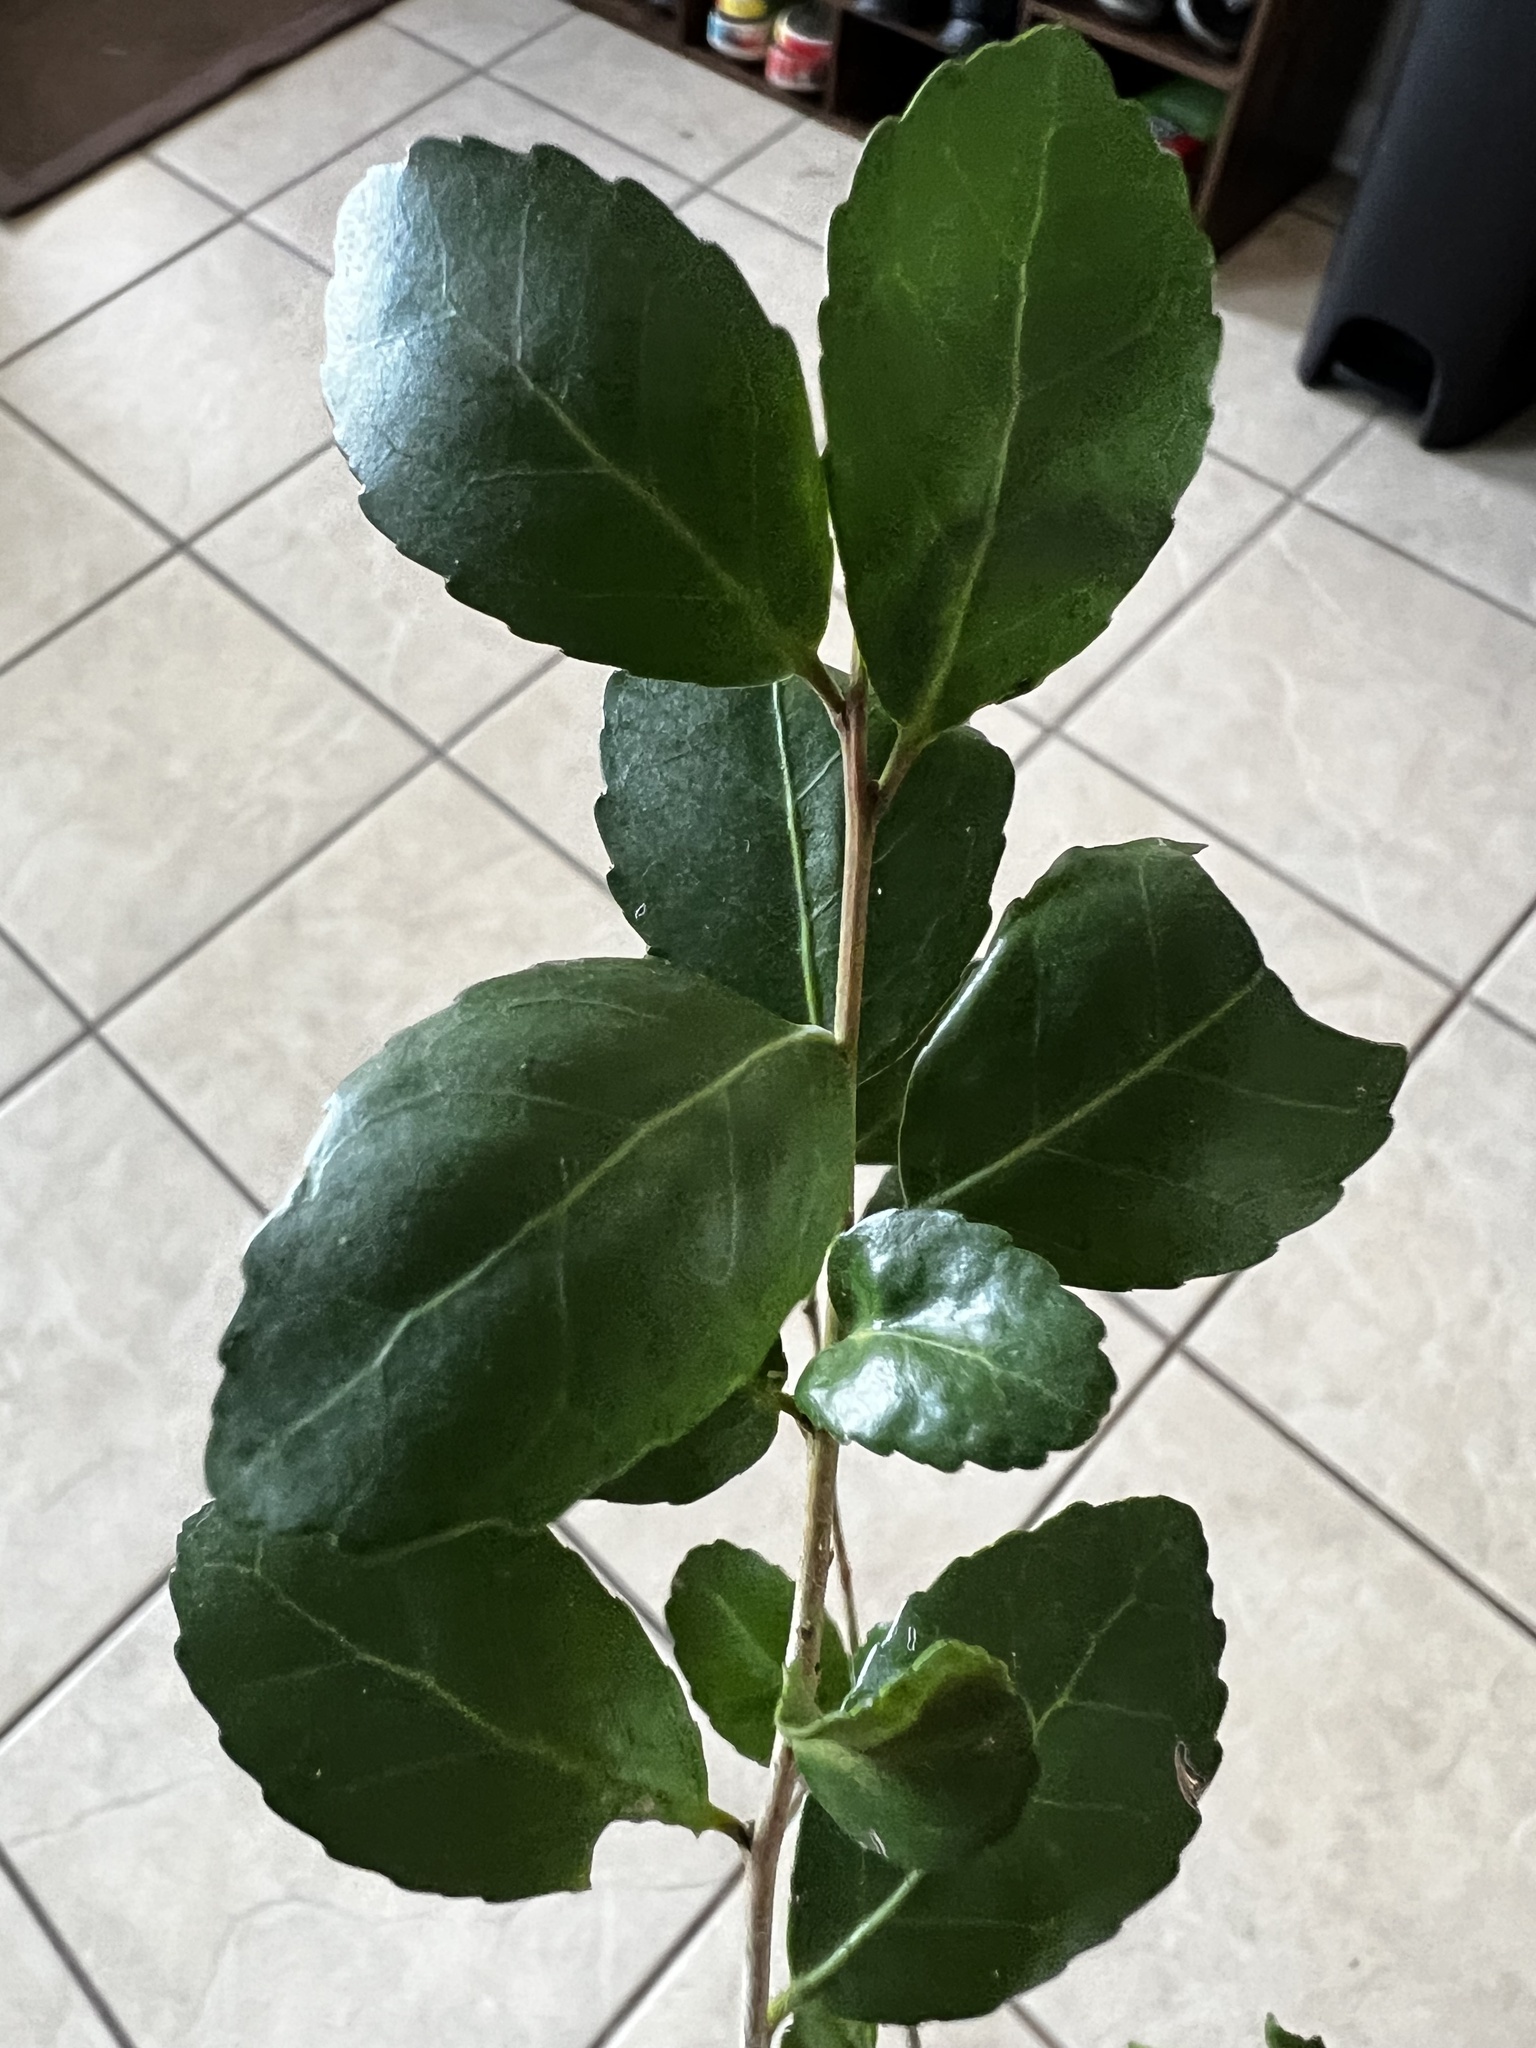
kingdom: Plantae
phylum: Tracheophyta
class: Magnoliopsida
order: Aquifoliales
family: Aquifoliaceae
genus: Ilex
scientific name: Ilex vomitoria
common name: Yaupon holly
